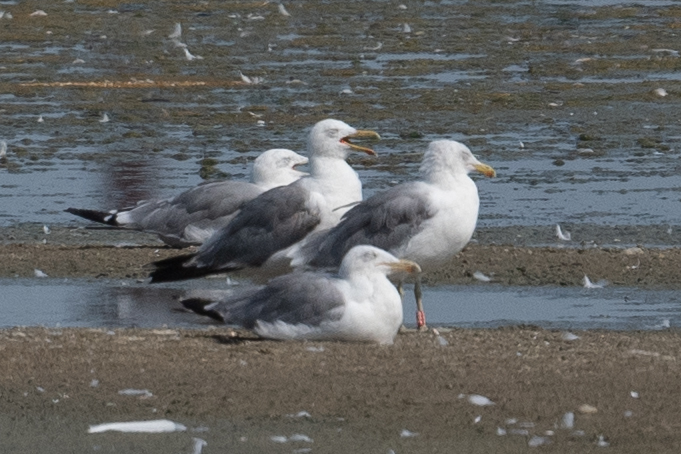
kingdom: Animalia
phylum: Chordata
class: Aves
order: Charadriiformes
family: Laridae
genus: Larus
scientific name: Larus californicus
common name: California gull
